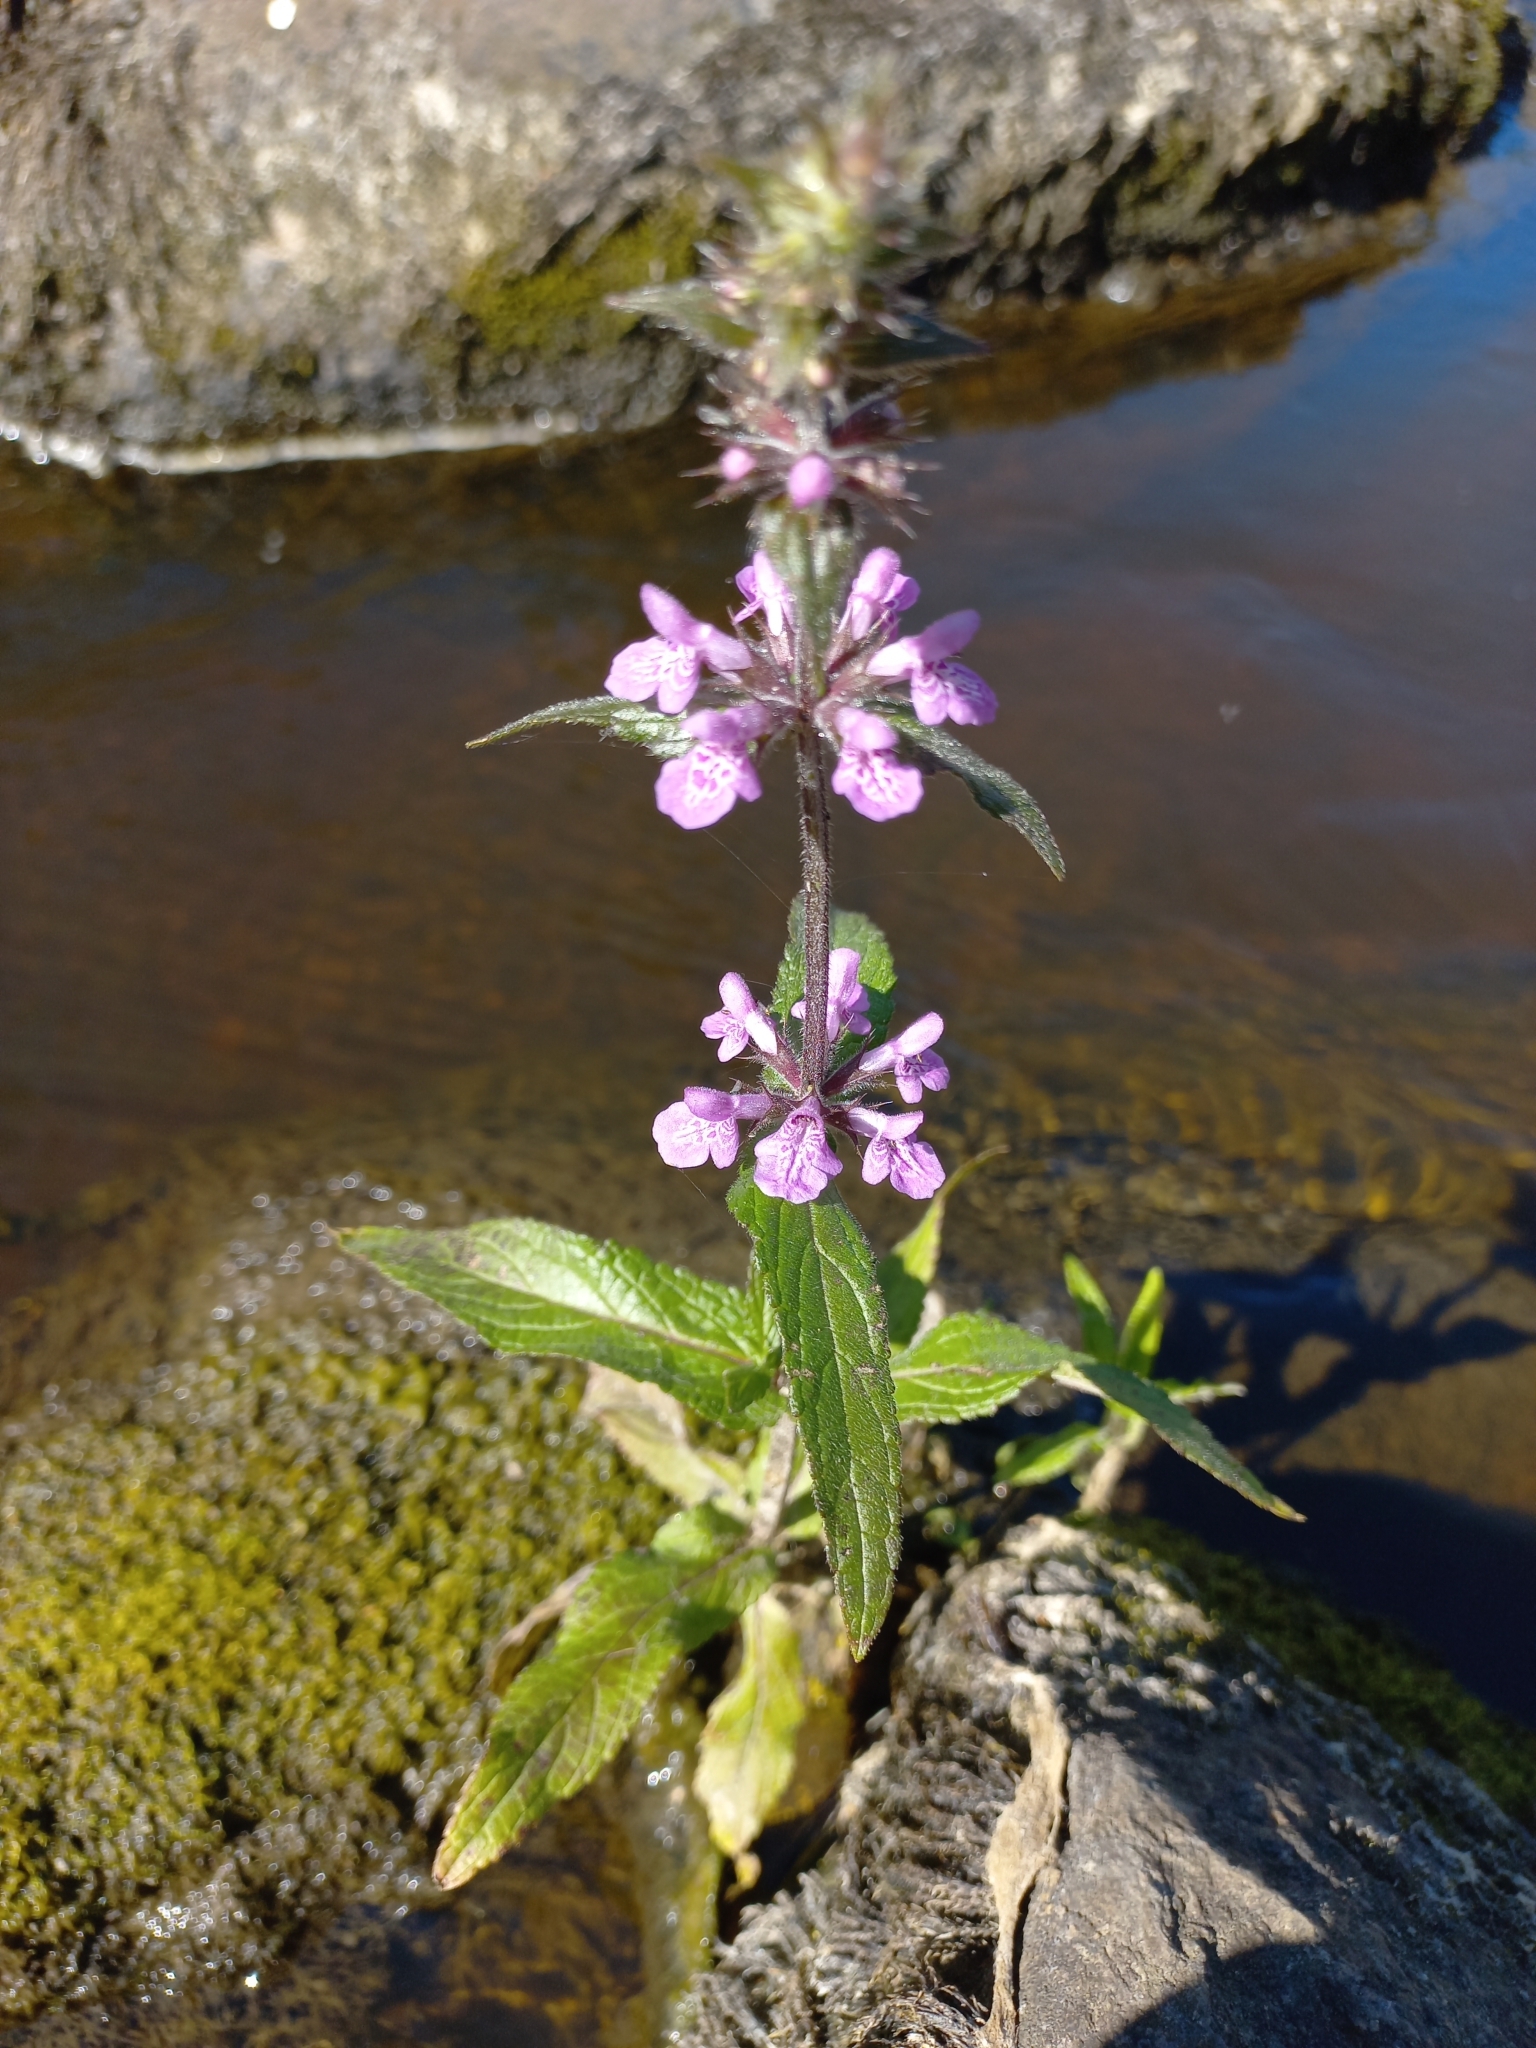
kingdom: Plantae
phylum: Tracheophyta
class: Magnoliopsida
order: Lamiales
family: Lamiaceae
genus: Stachys
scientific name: Stachys palustris
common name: Marsh woundwort
